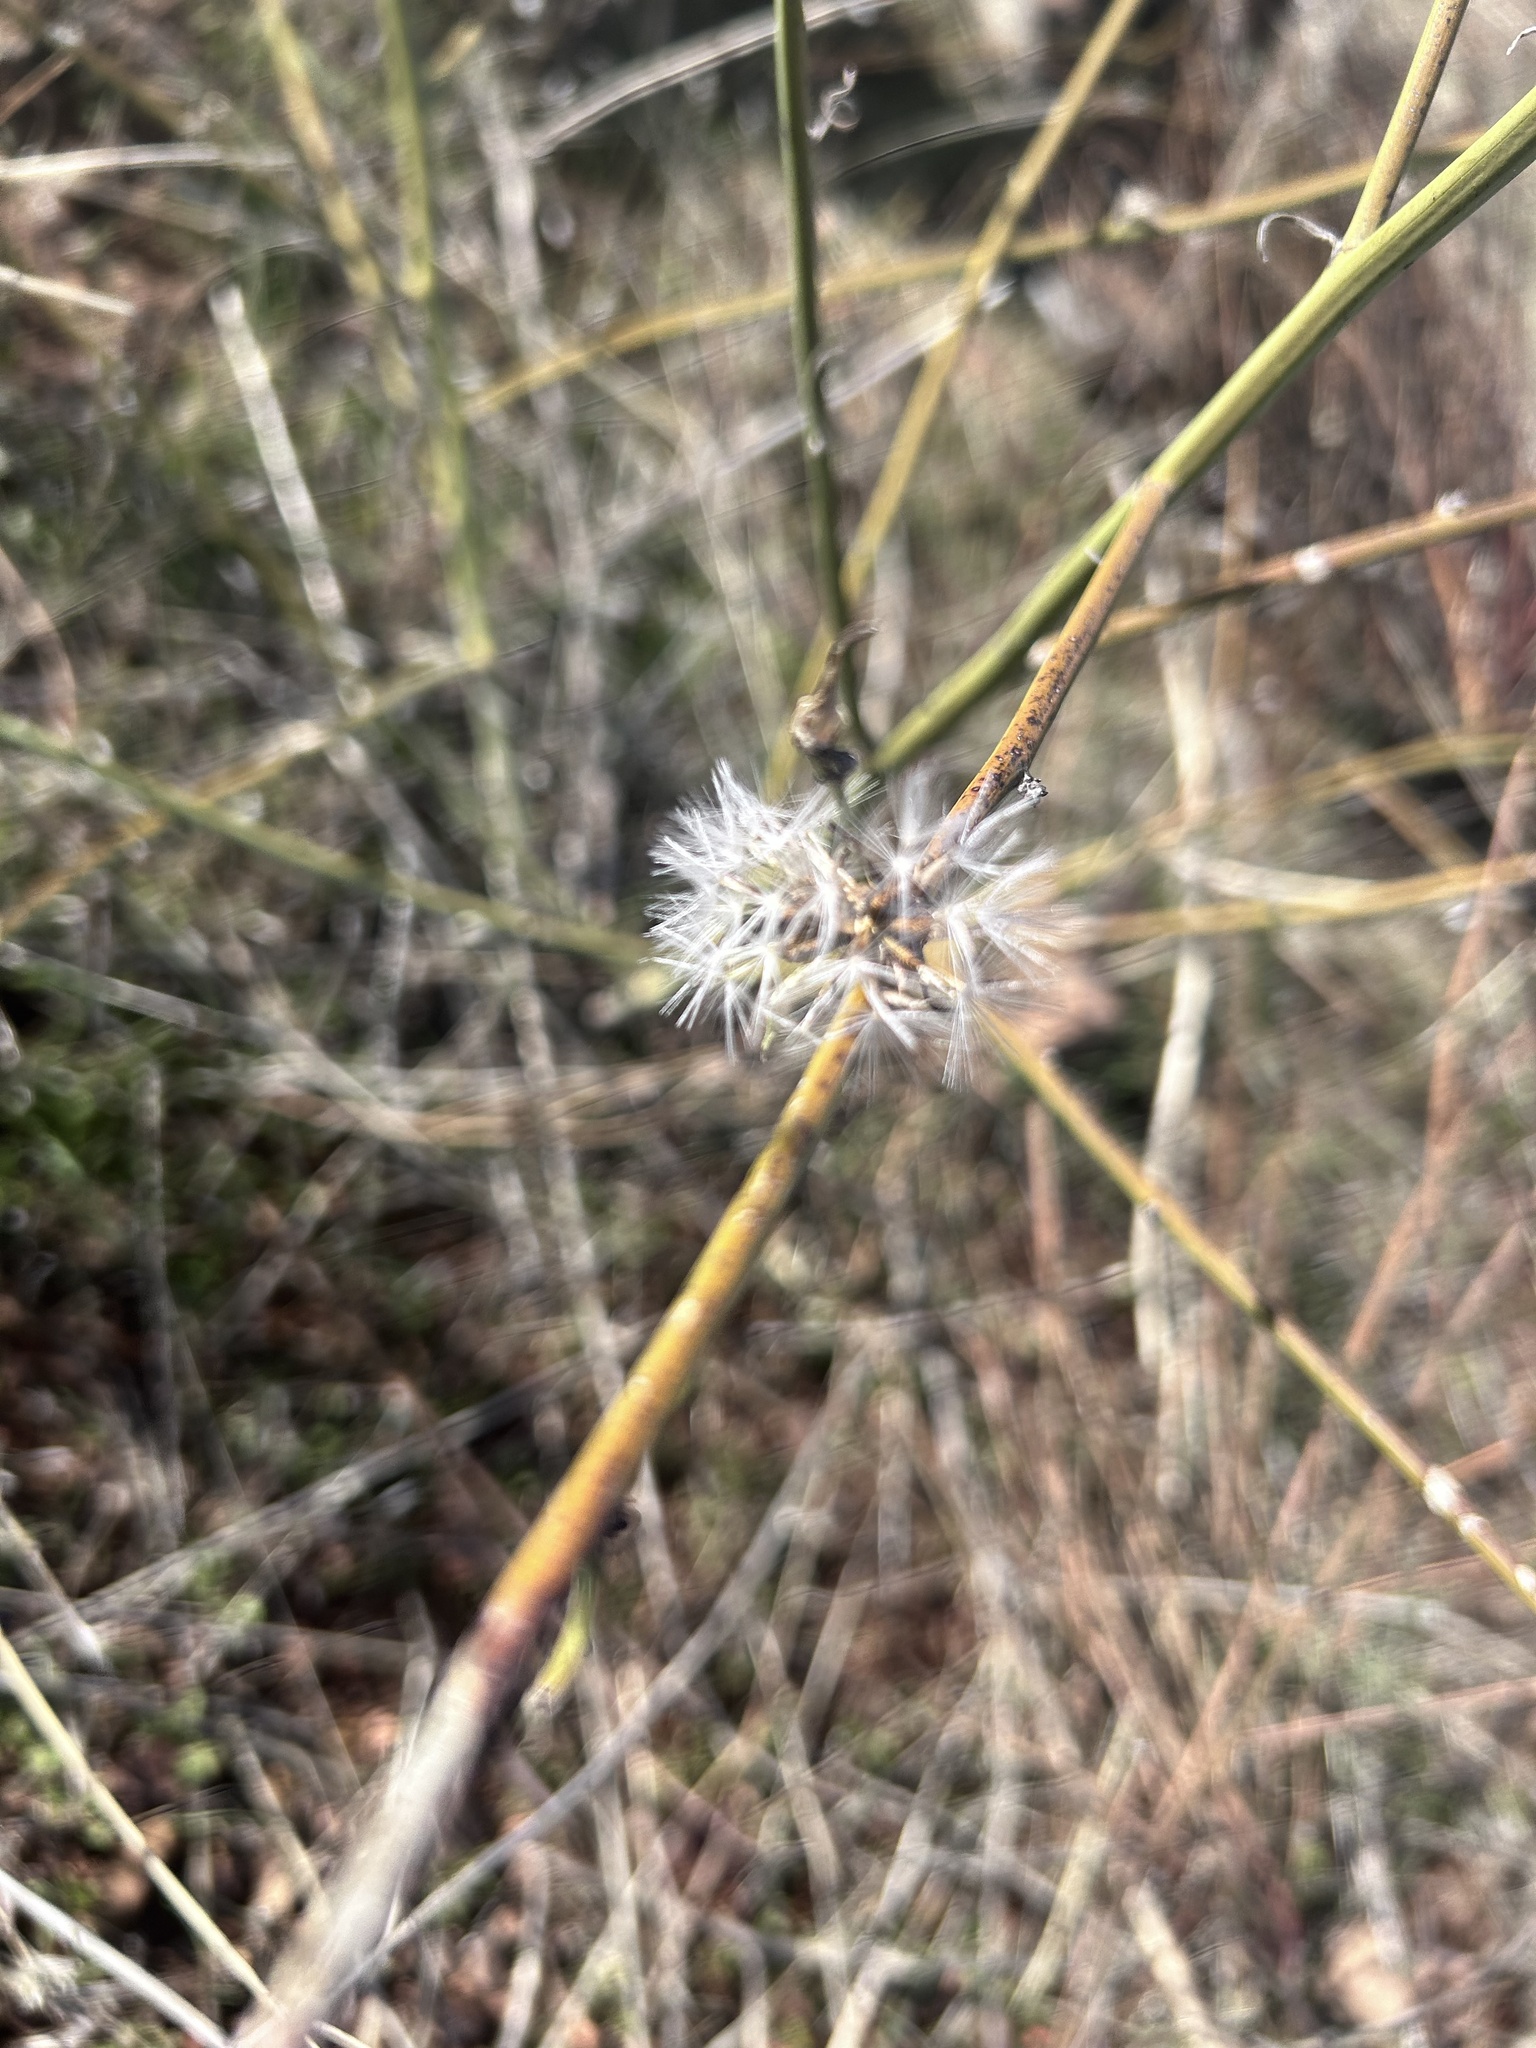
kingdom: Plantae
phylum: Tracheophyta
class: Magnoliopsida
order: Asterales
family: Asteraceae
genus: Chondrilla
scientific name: Chondrilla juncea
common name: Skeleton weed
